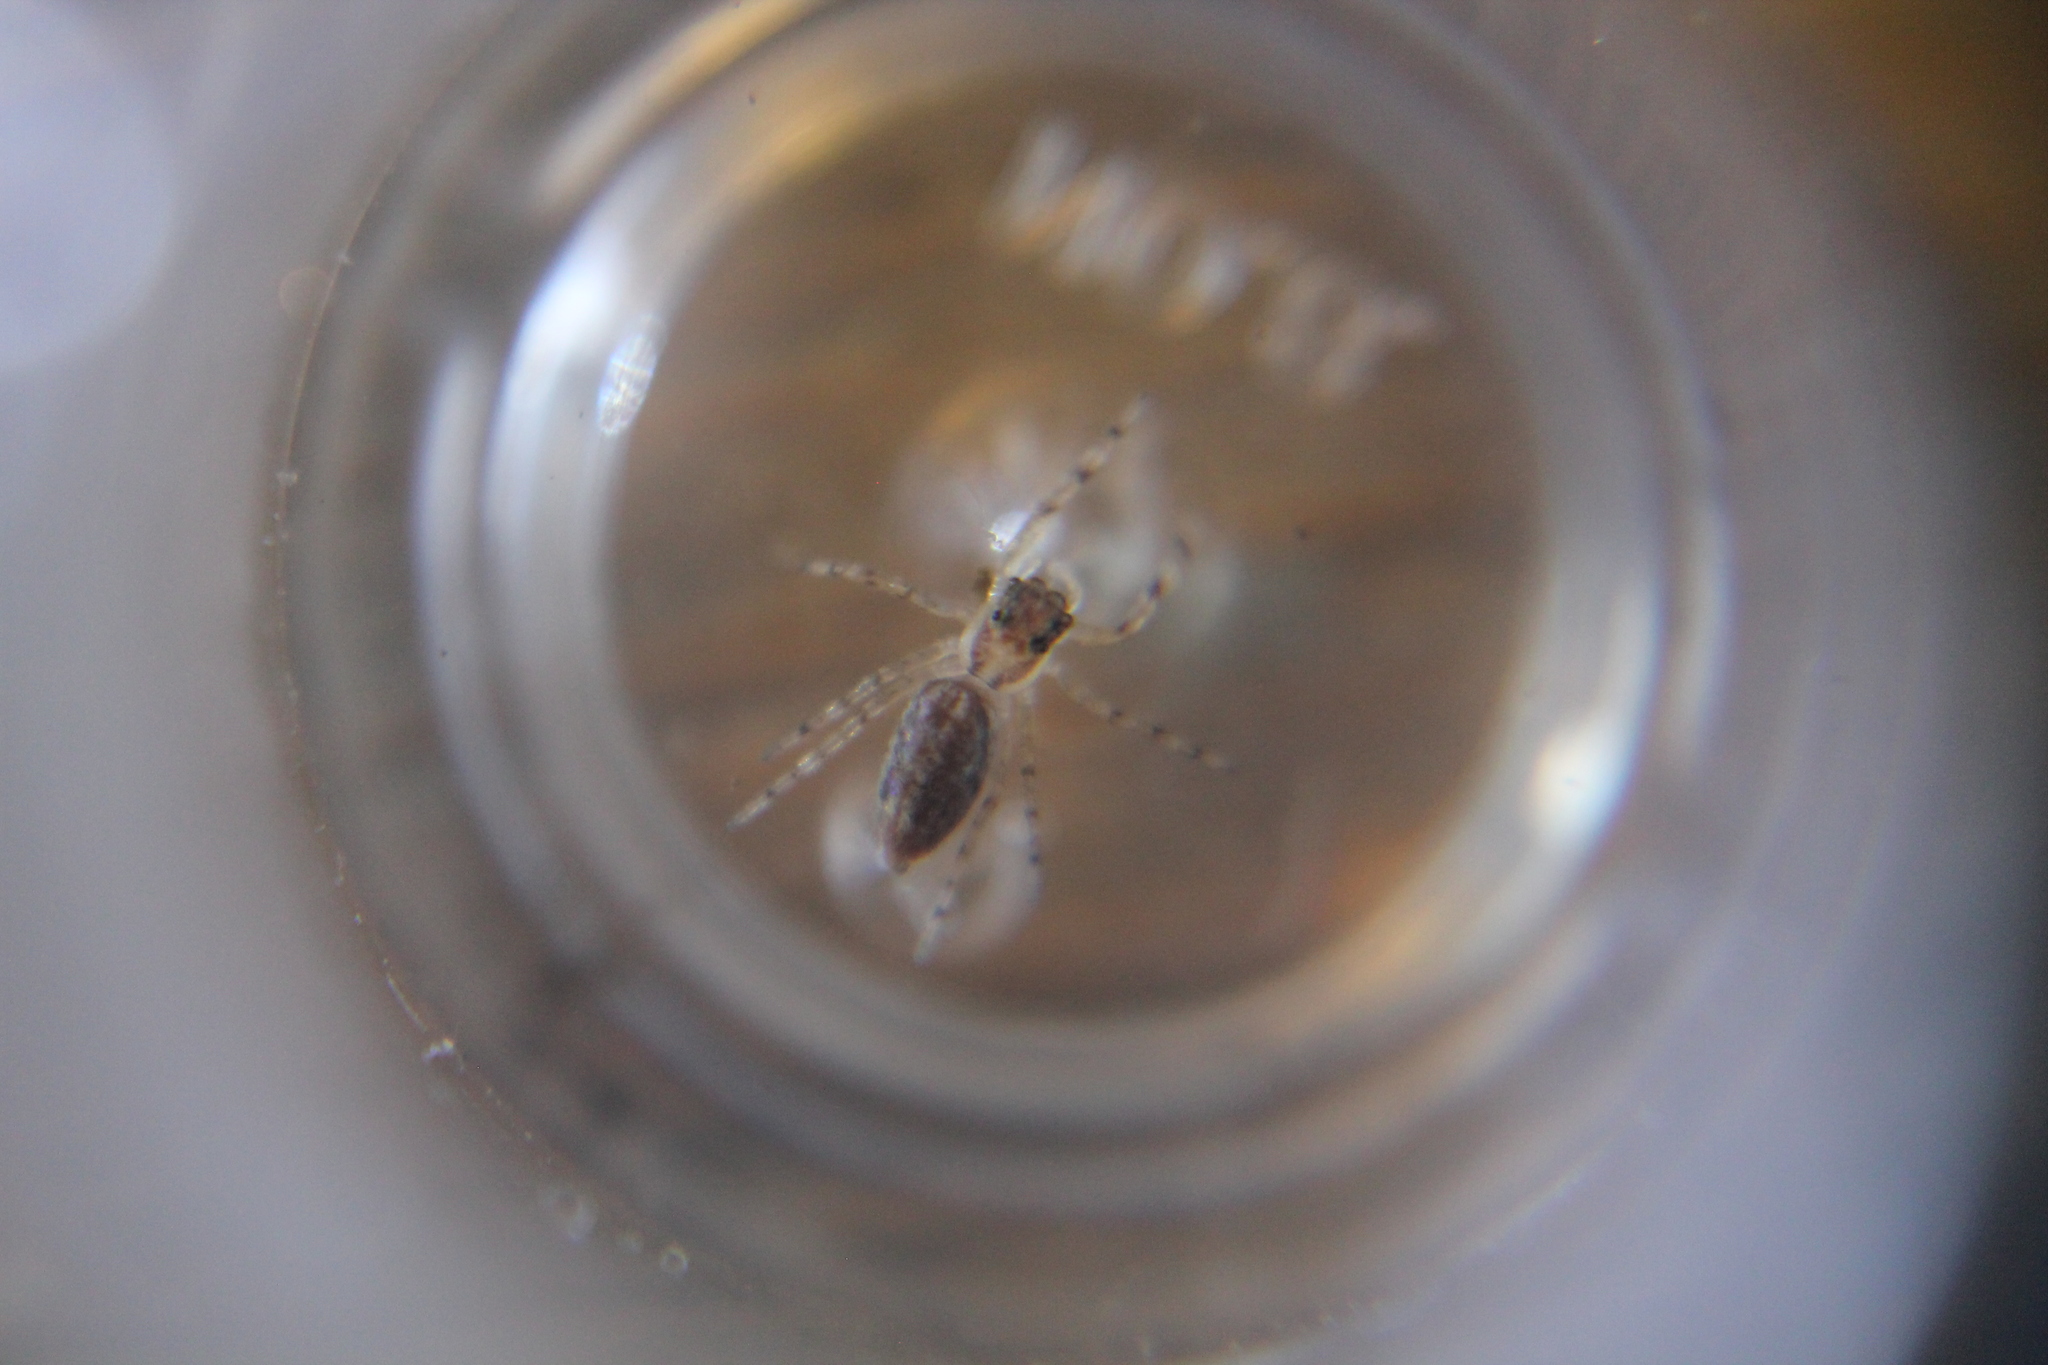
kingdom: Animalia
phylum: Arthropoda
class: Arachnida
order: Araneae
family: Salticidae
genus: Helpis
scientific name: Helpis minitabunda
